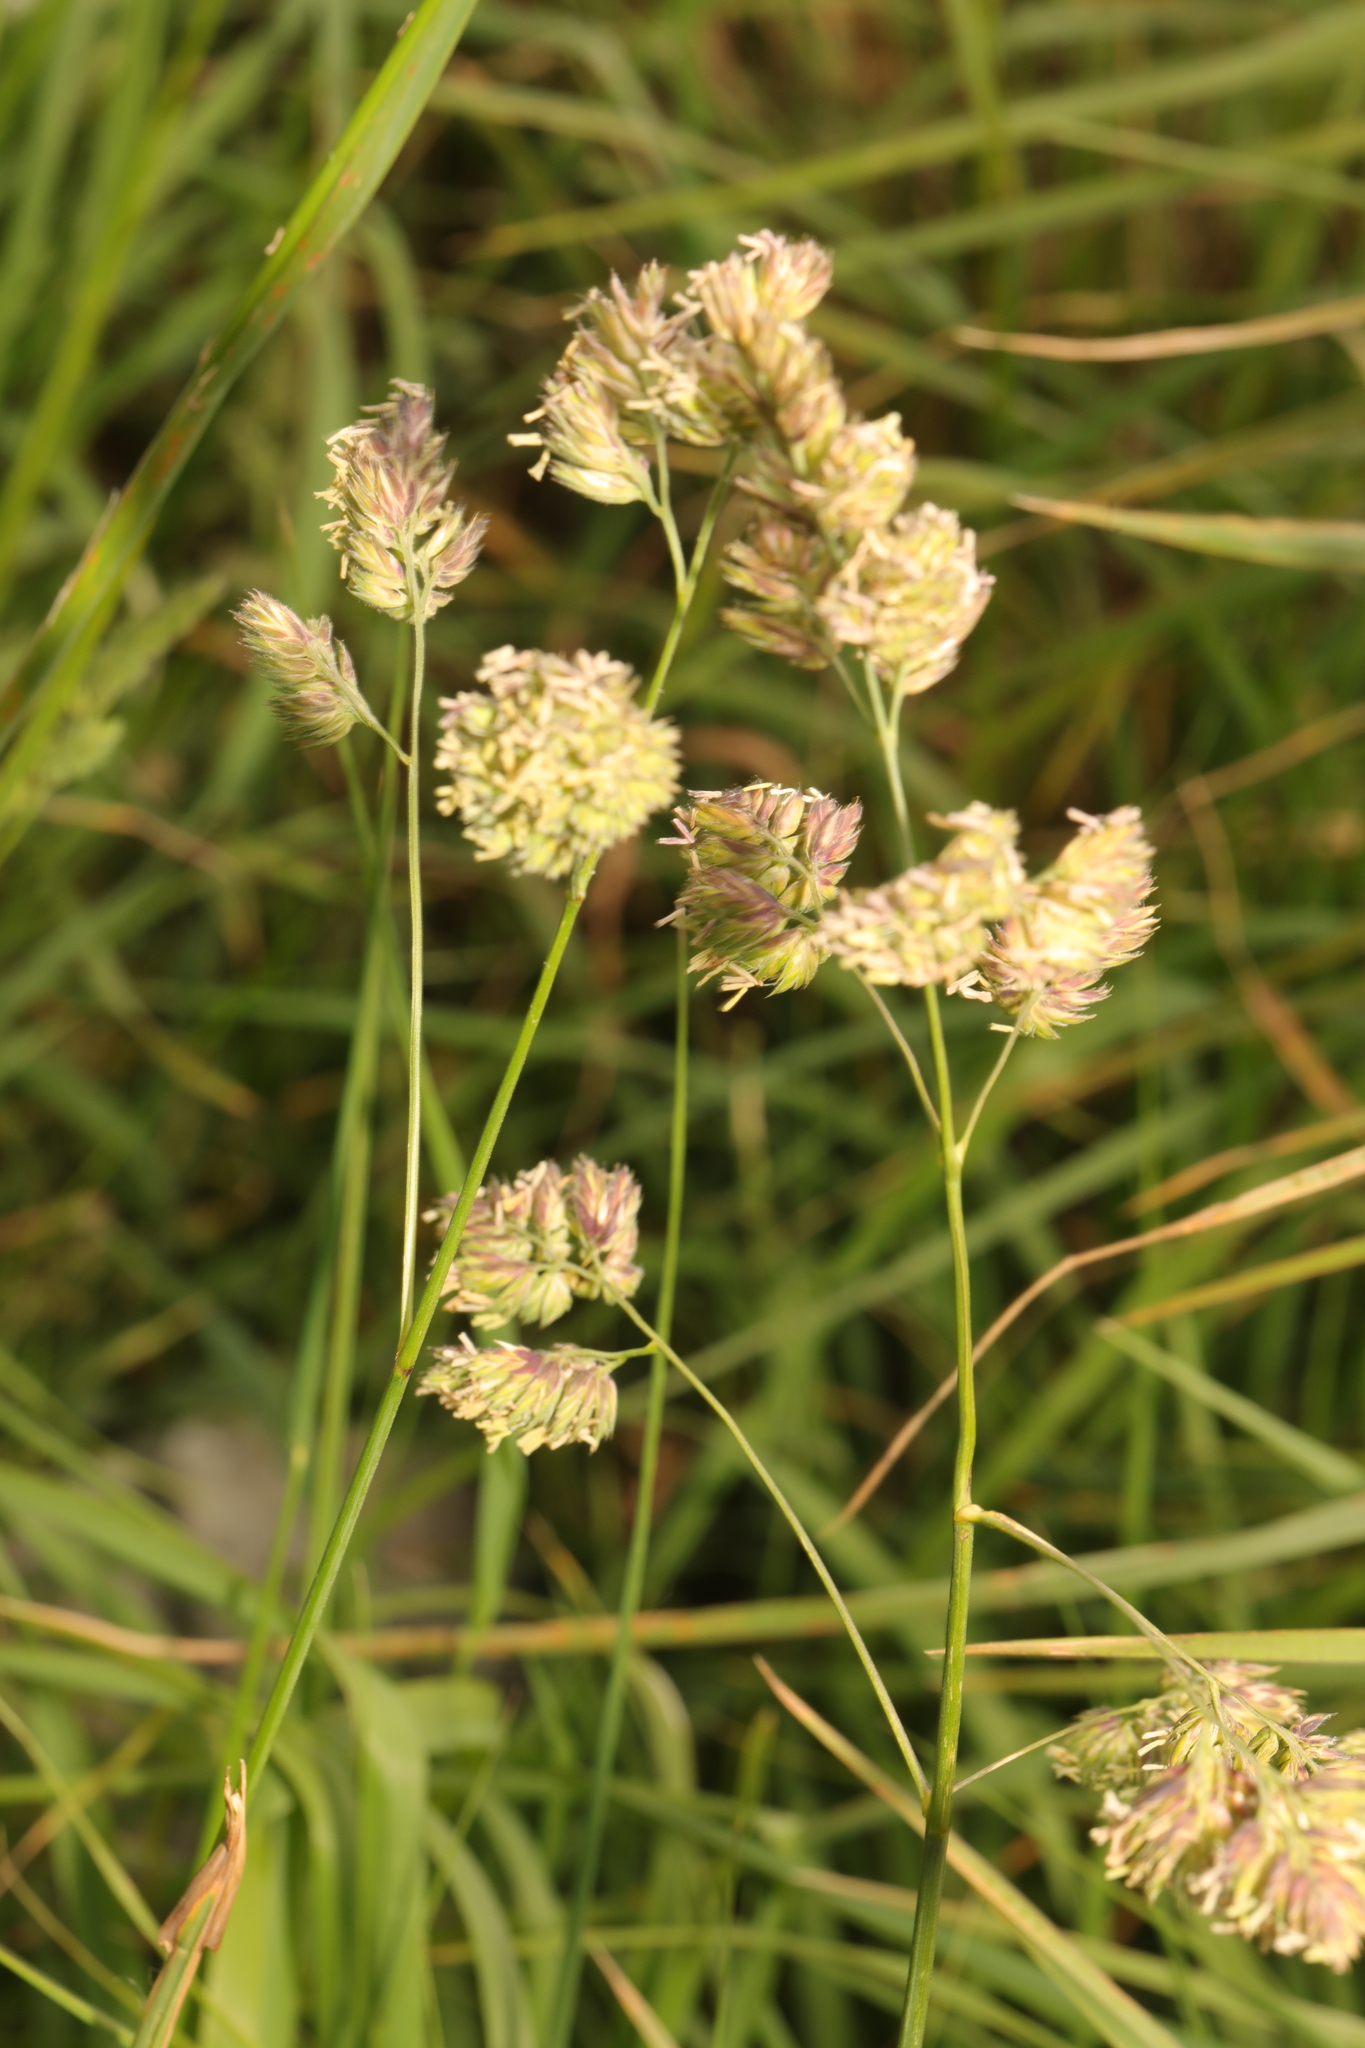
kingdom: Plantae
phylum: Tracheophyta
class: Liliopsida
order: Poales
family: Poaceae
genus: Dactylis
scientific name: Dactylis glomerata
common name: Orchardgrass
